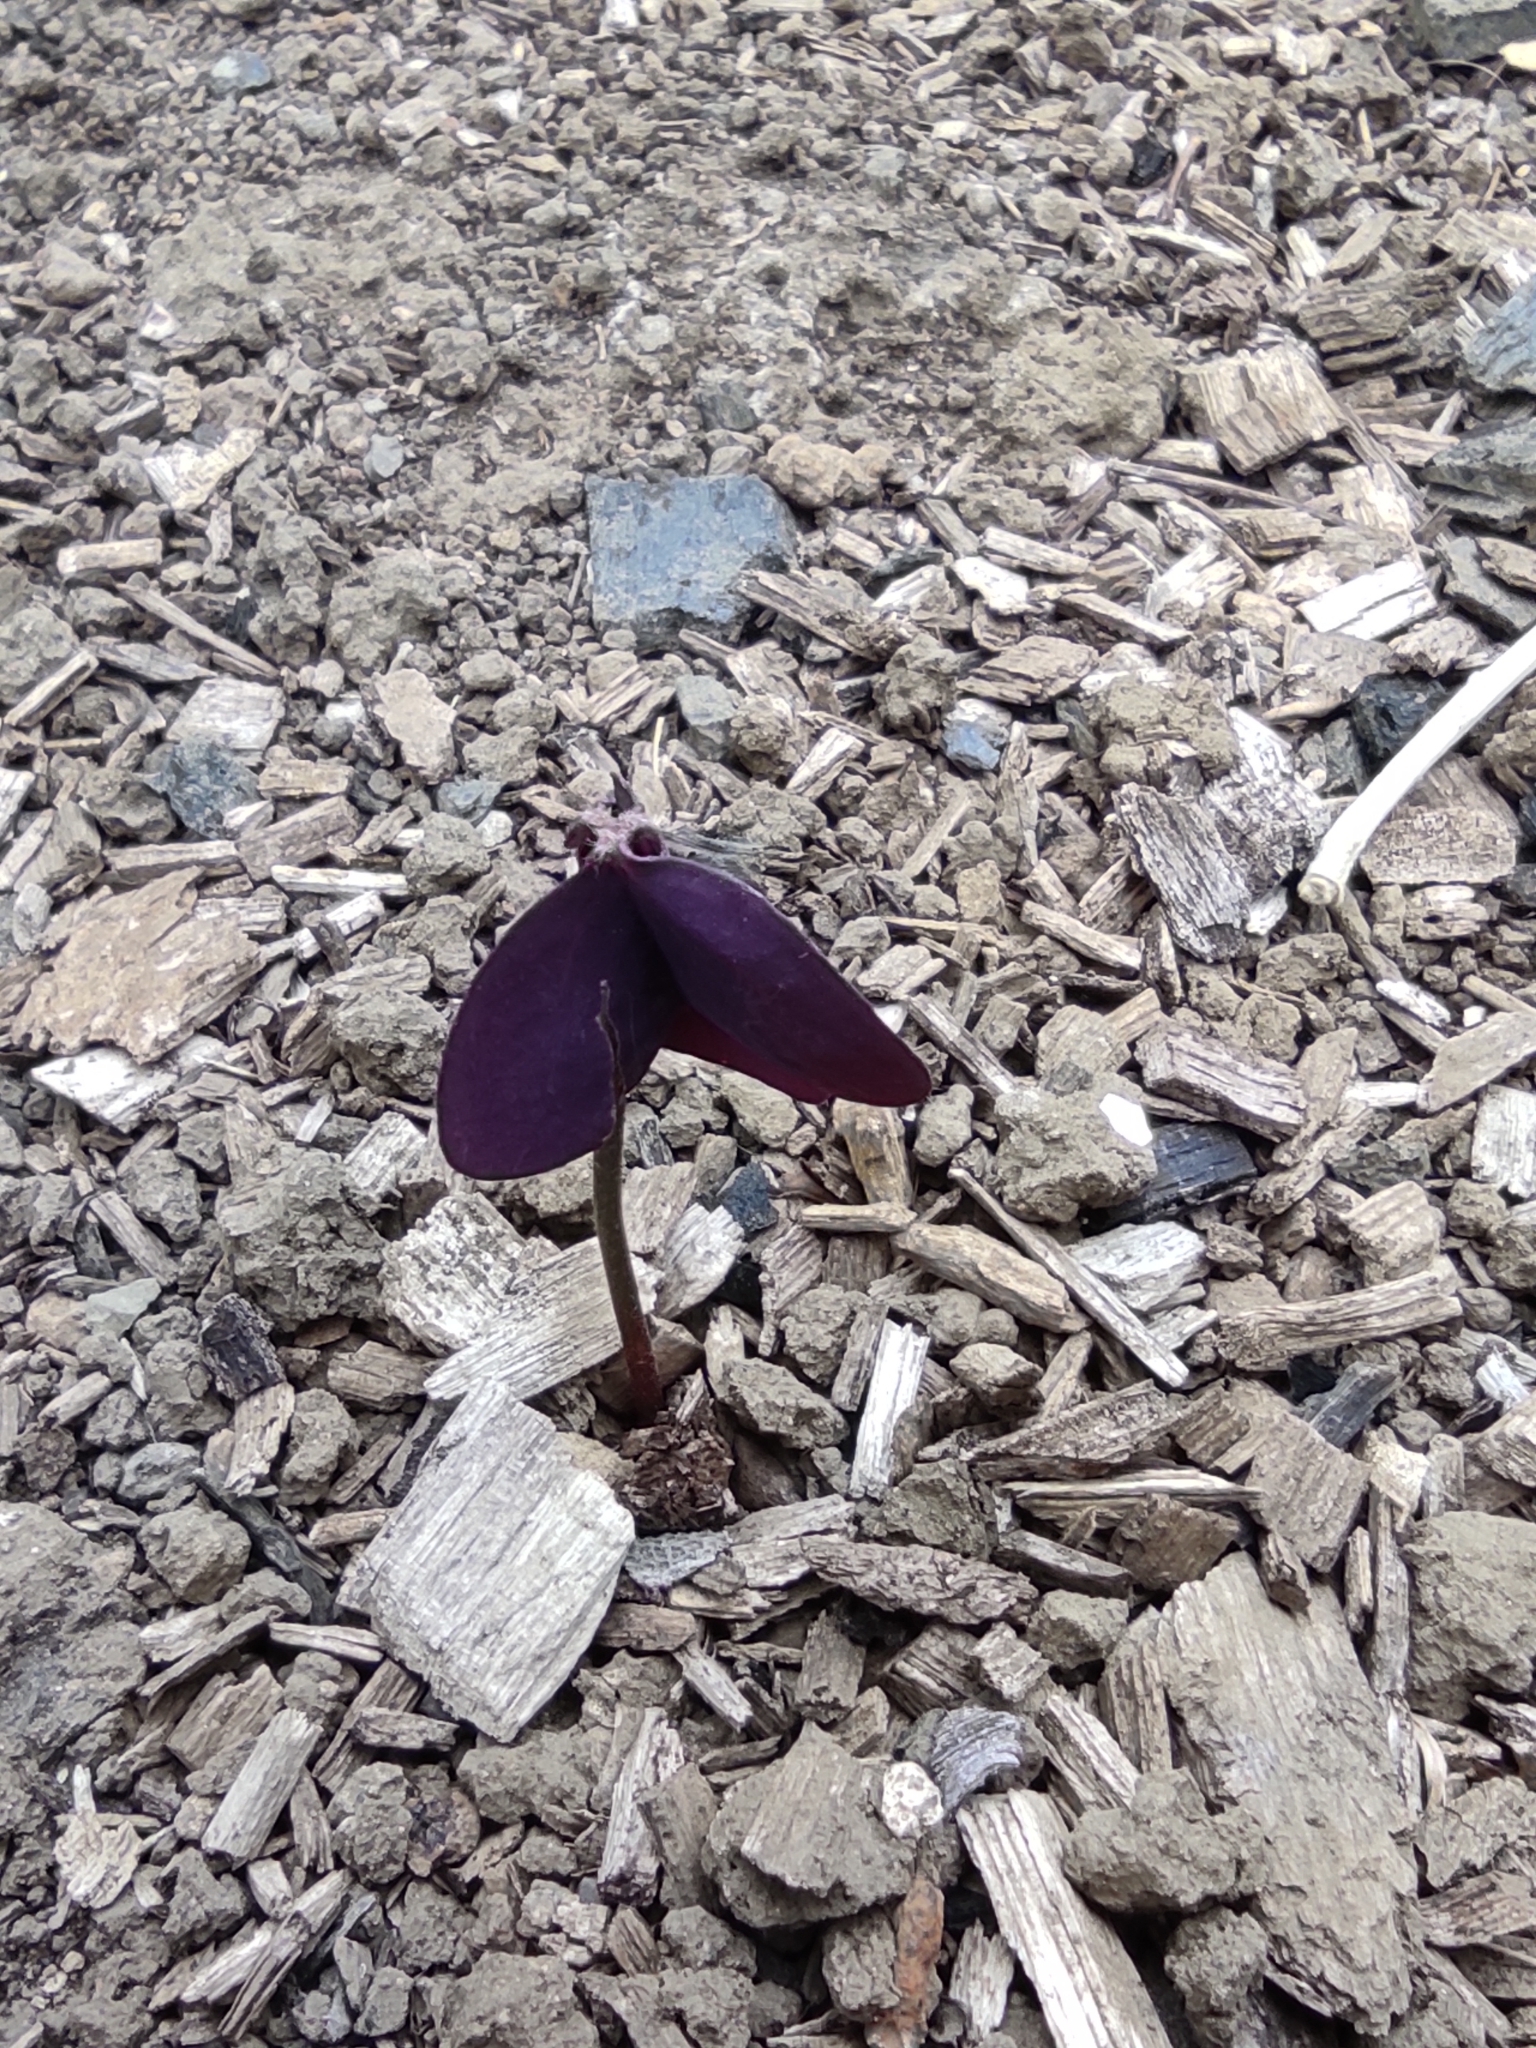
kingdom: Plantae
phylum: Tracheophyta
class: Magnoliopsida
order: Oxalidales
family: Oxalidaceae
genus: Oxalis
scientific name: Oxalis triangularis
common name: Wood sorrel
